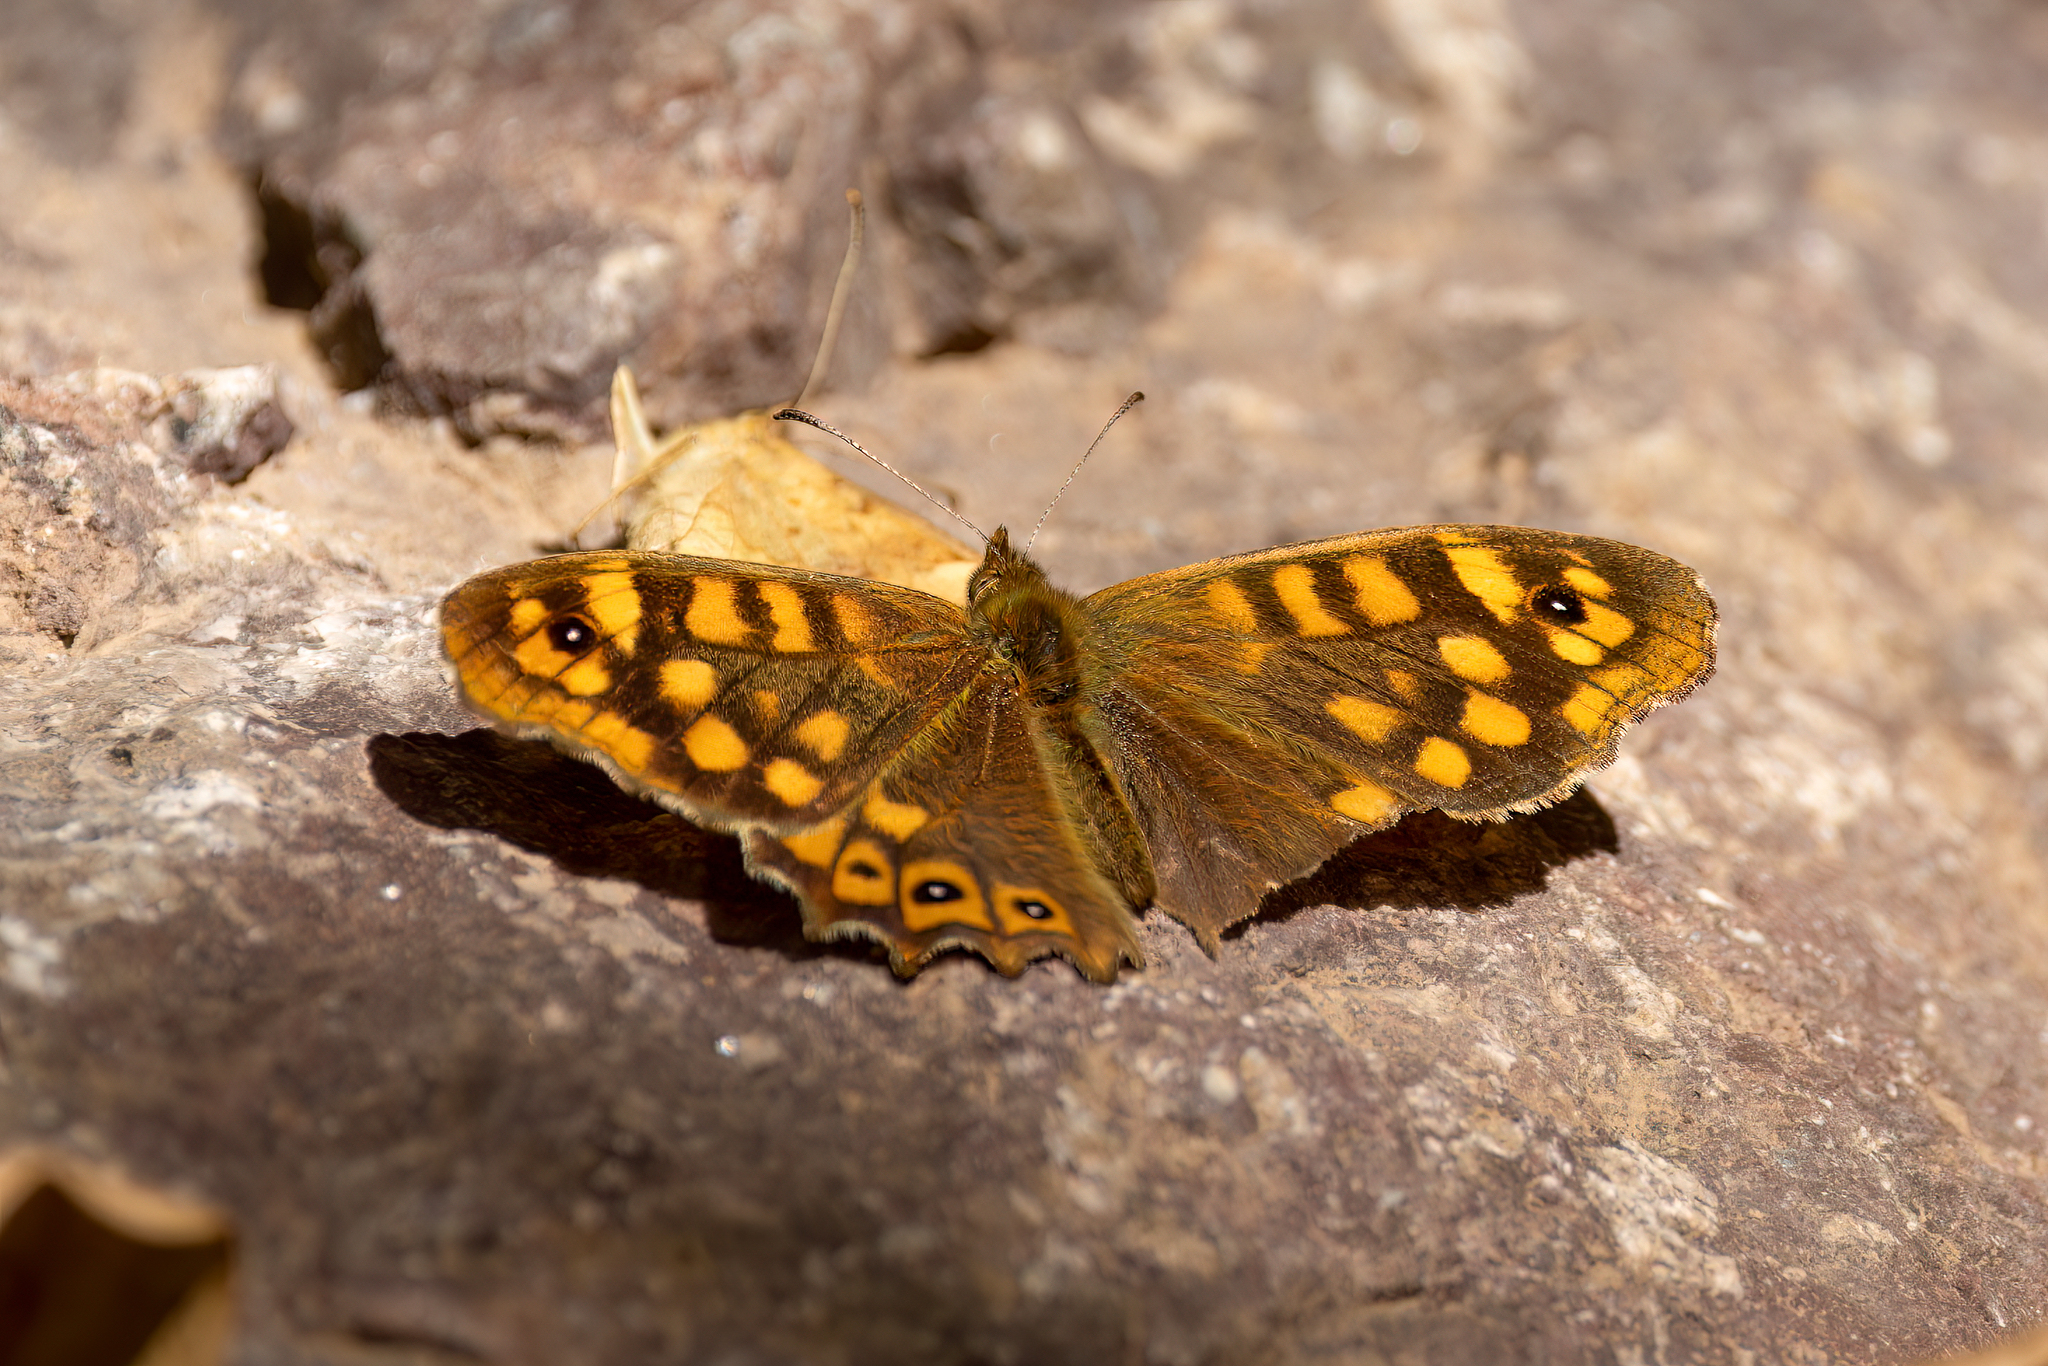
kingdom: Animalia
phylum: Arthropoda
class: Insecta
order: Lepidoptera
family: Nymphalidae
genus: Pararge
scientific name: Pararge aegeria
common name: Speckled wood
